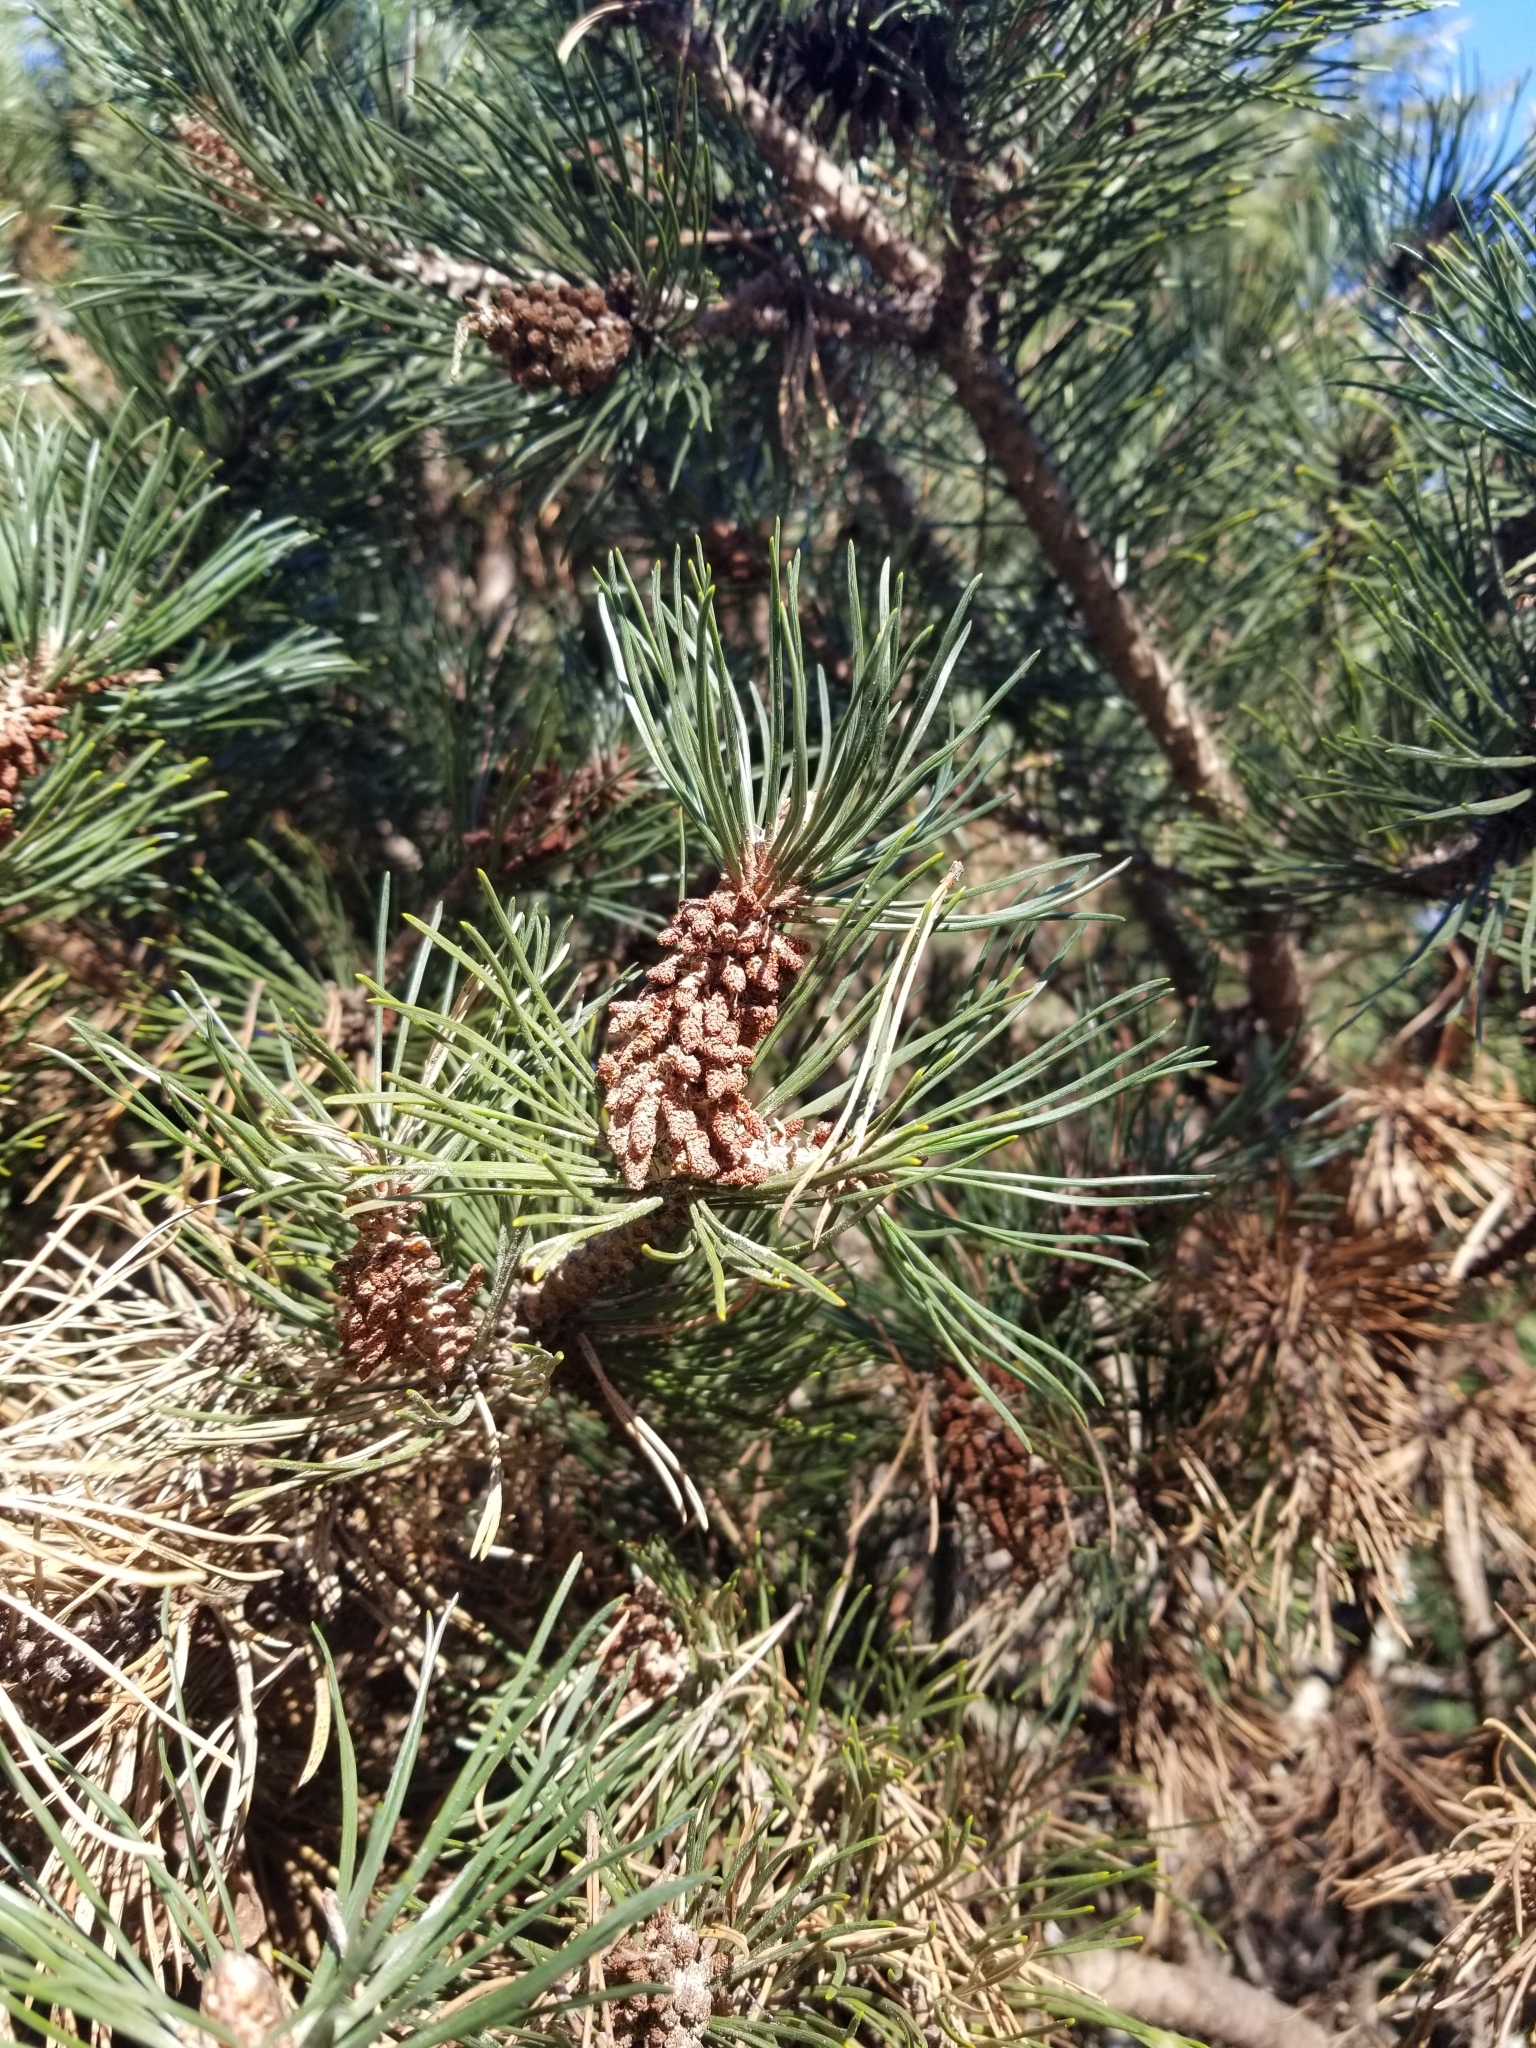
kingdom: Plantae
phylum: Tracheophyta
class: Pinopsida
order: Pinales
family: Pinaceae
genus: Pinus
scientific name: Pinus contorta
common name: Lodgepole pine
